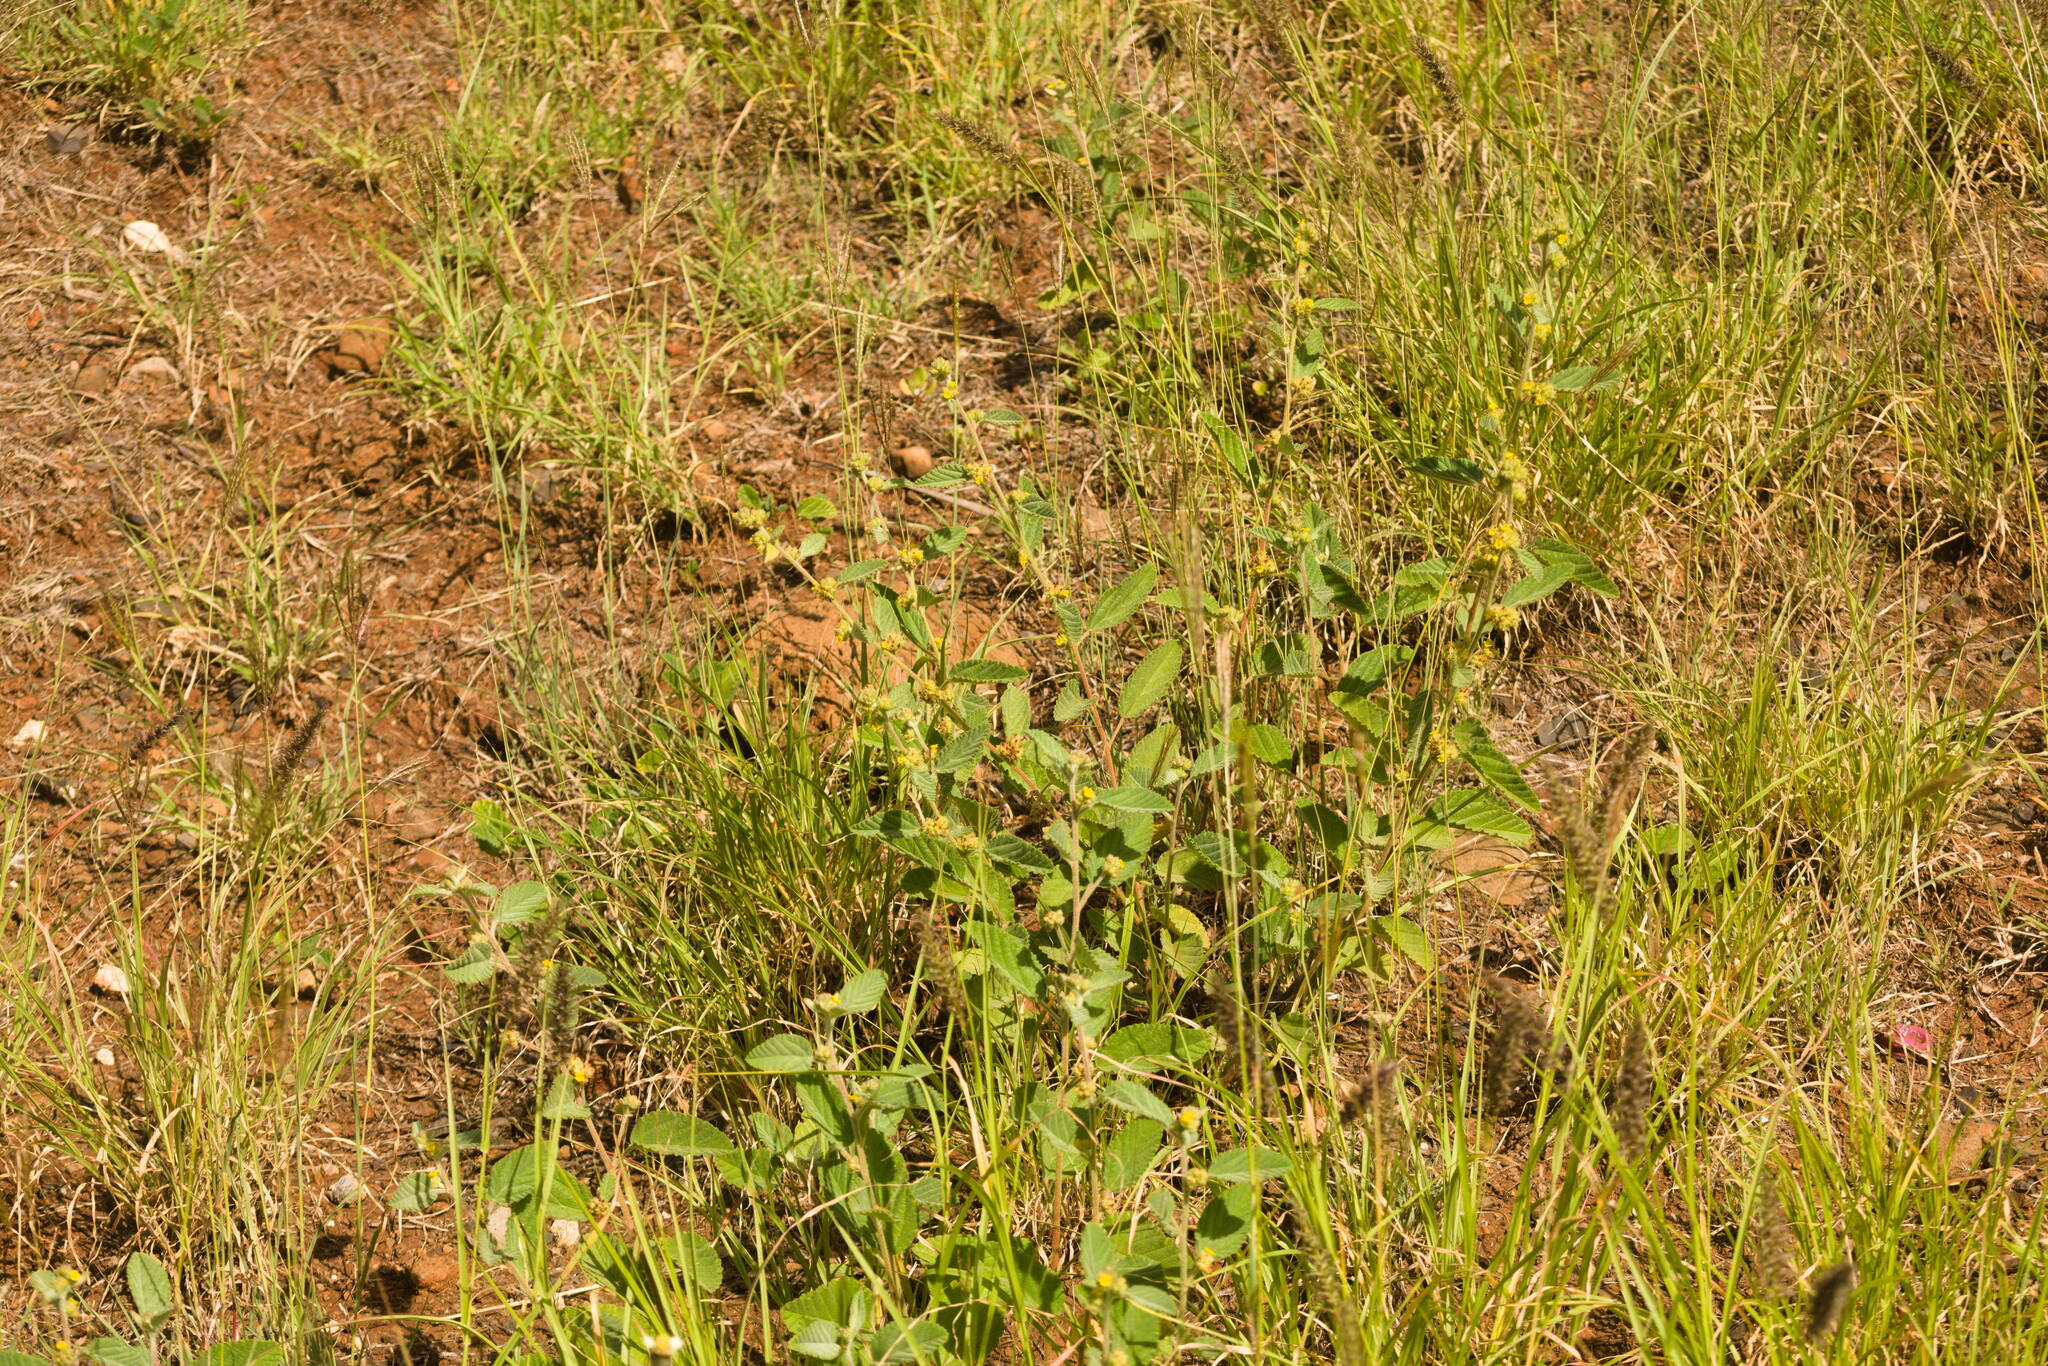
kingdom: Plantae
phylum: Tracheophyta
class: Magnoliopsida
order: Malvales
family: Malvaceae
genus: Waltheria
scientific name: Waltheria indica
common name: Leather-coat
